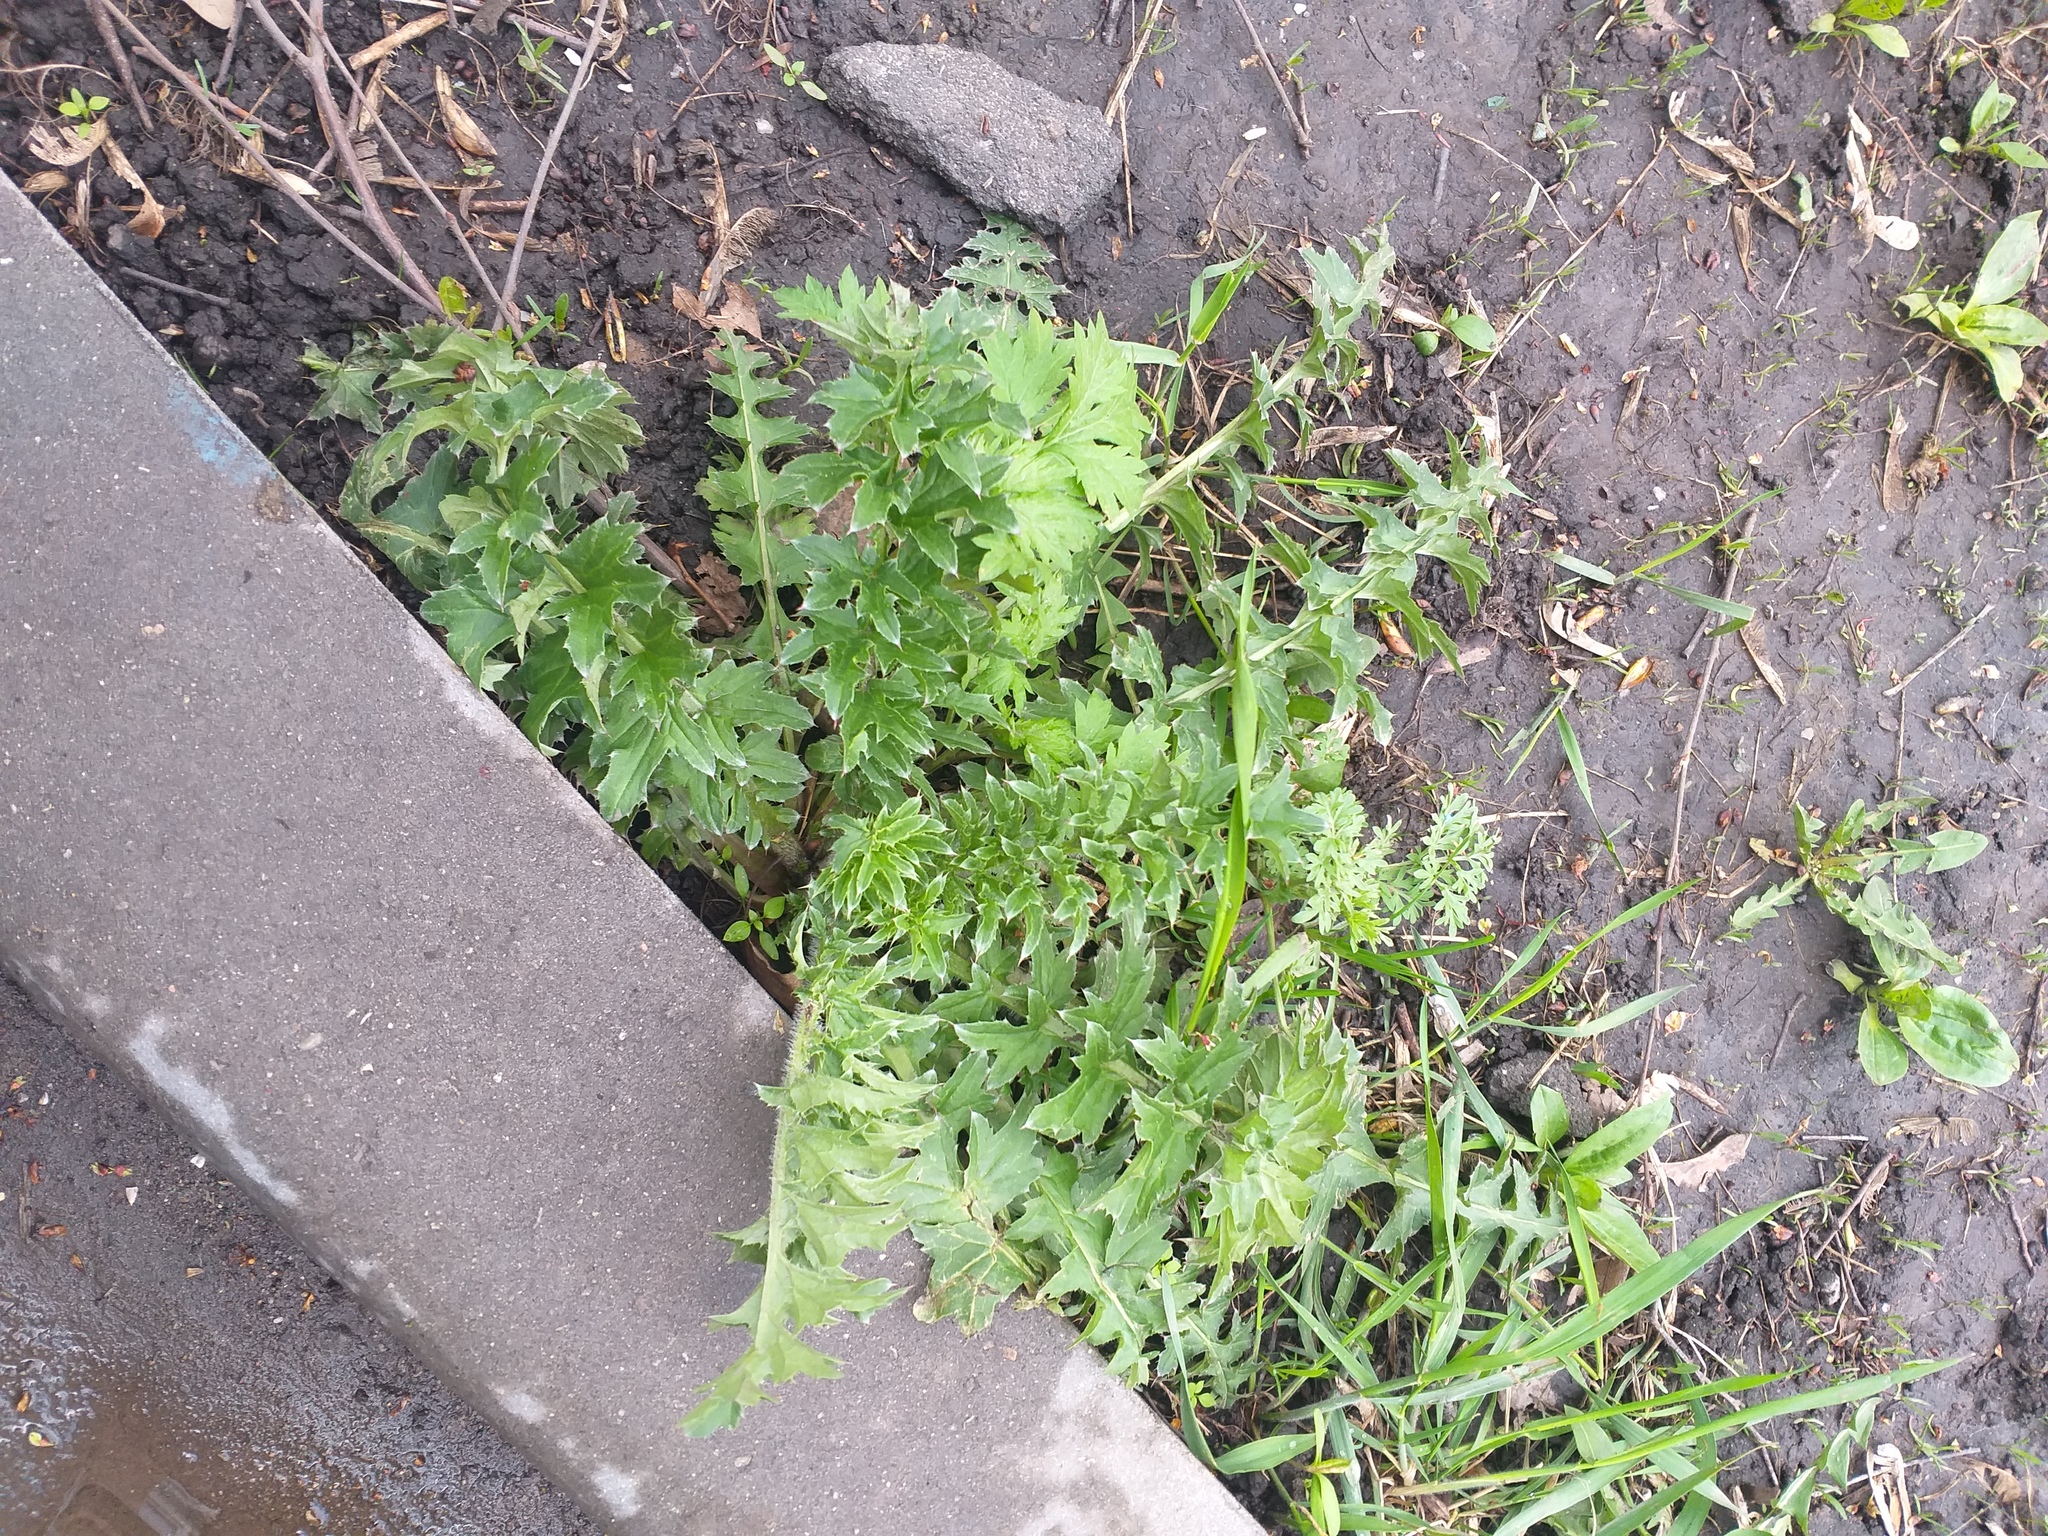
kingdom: Plantae
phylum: Tracheophyta
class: Magnoliopsida
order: Asterales
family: Asteraceae
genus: Carduus
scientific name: Carduus acanthoides
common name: Plumeless thistle
